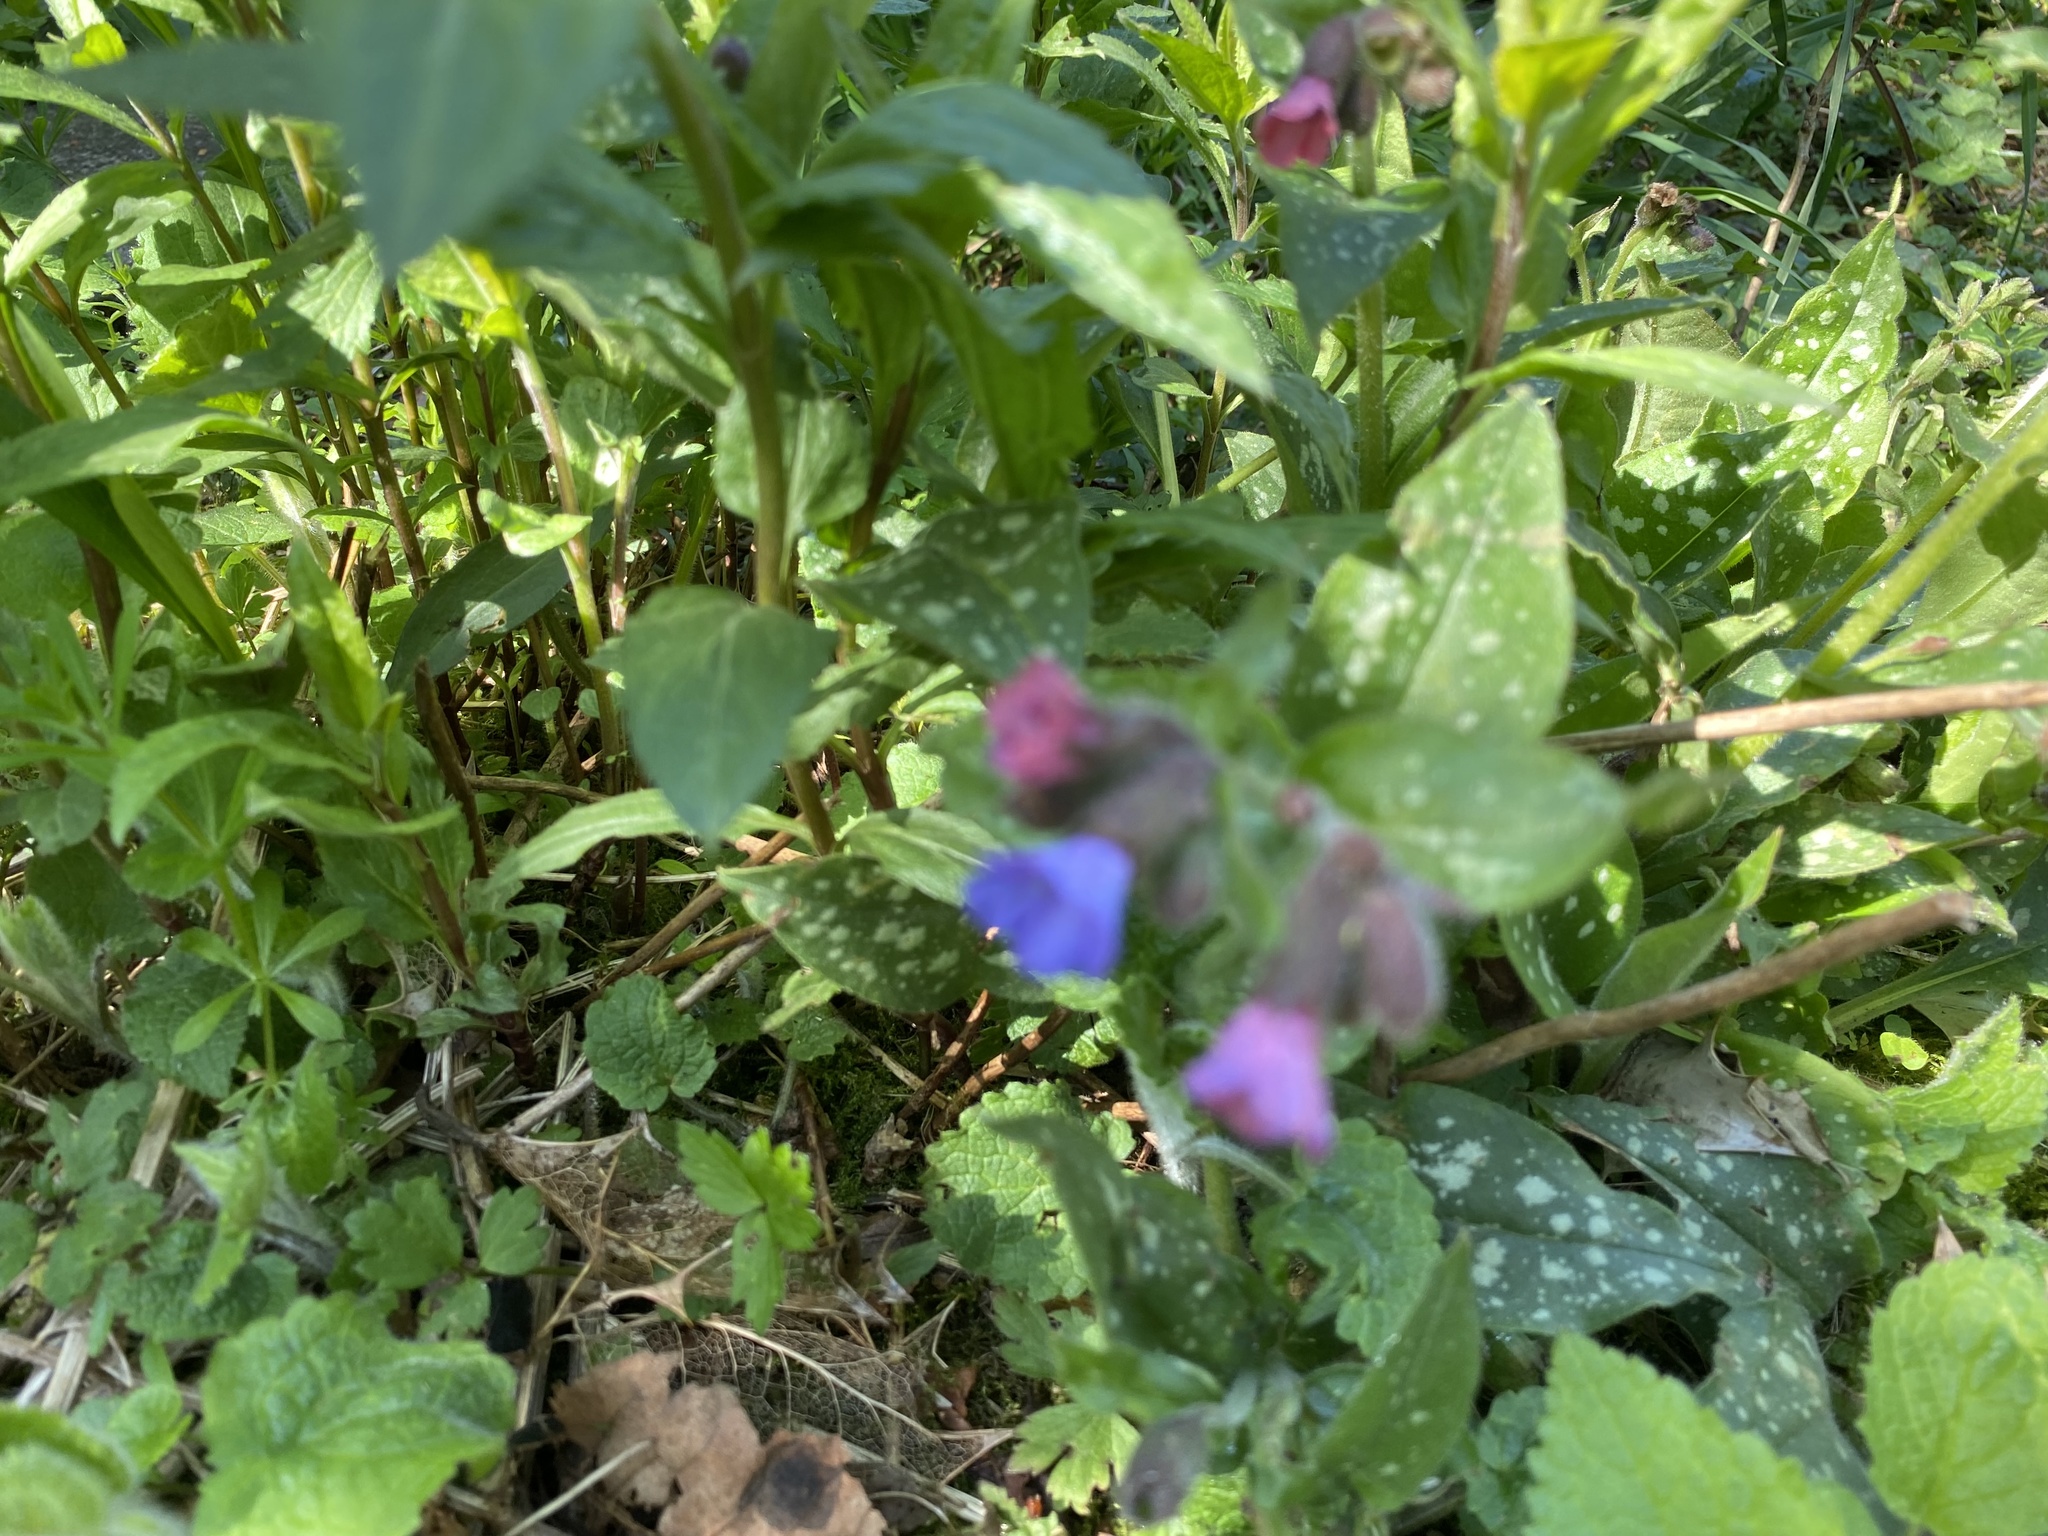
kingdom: Plantae
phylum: Tracheophyta
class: Magnoliopsida
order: Boraginales
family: Boraginaceae
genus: Pulmonaria
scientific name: Pulmonaria officinalis
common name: Lungwort
